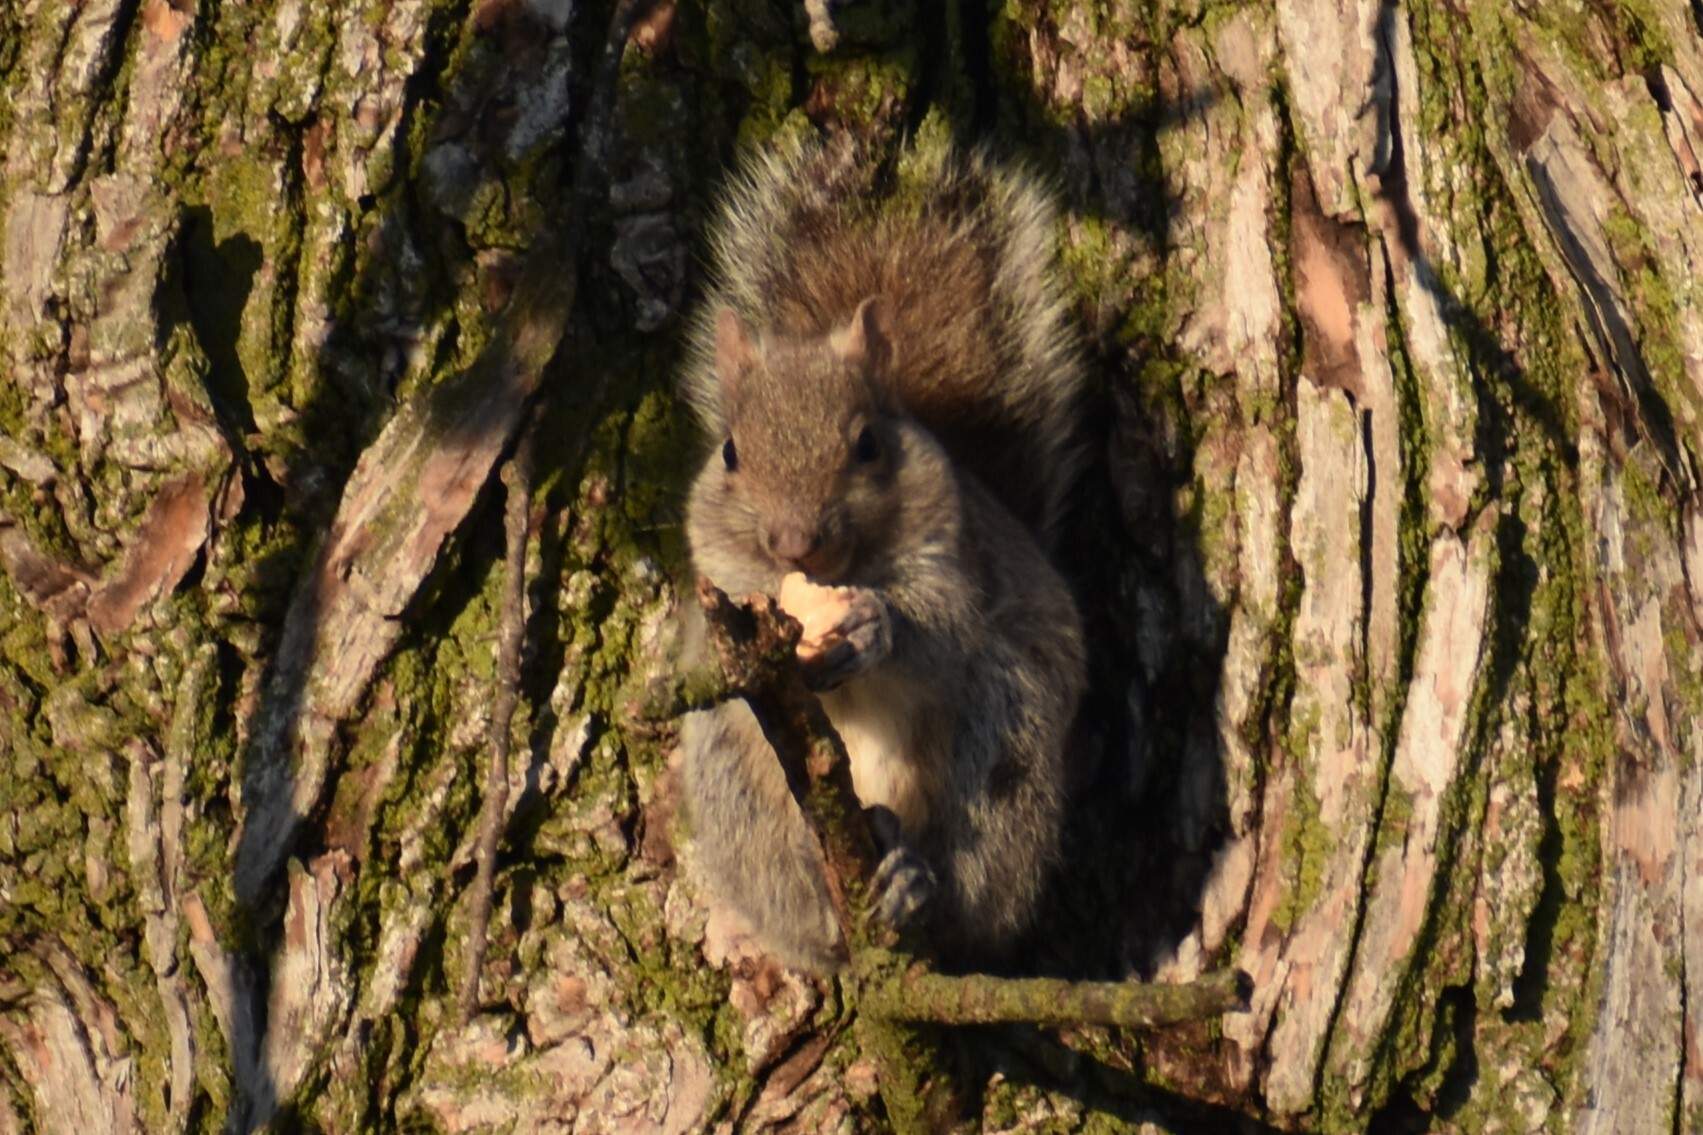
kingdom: Animalia
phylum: Chordata
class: Mammalia
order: Rodentia
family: Sciuridae
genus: Sciurus
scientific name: Sciurus carolinensis
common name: Eastern gray squirrel
